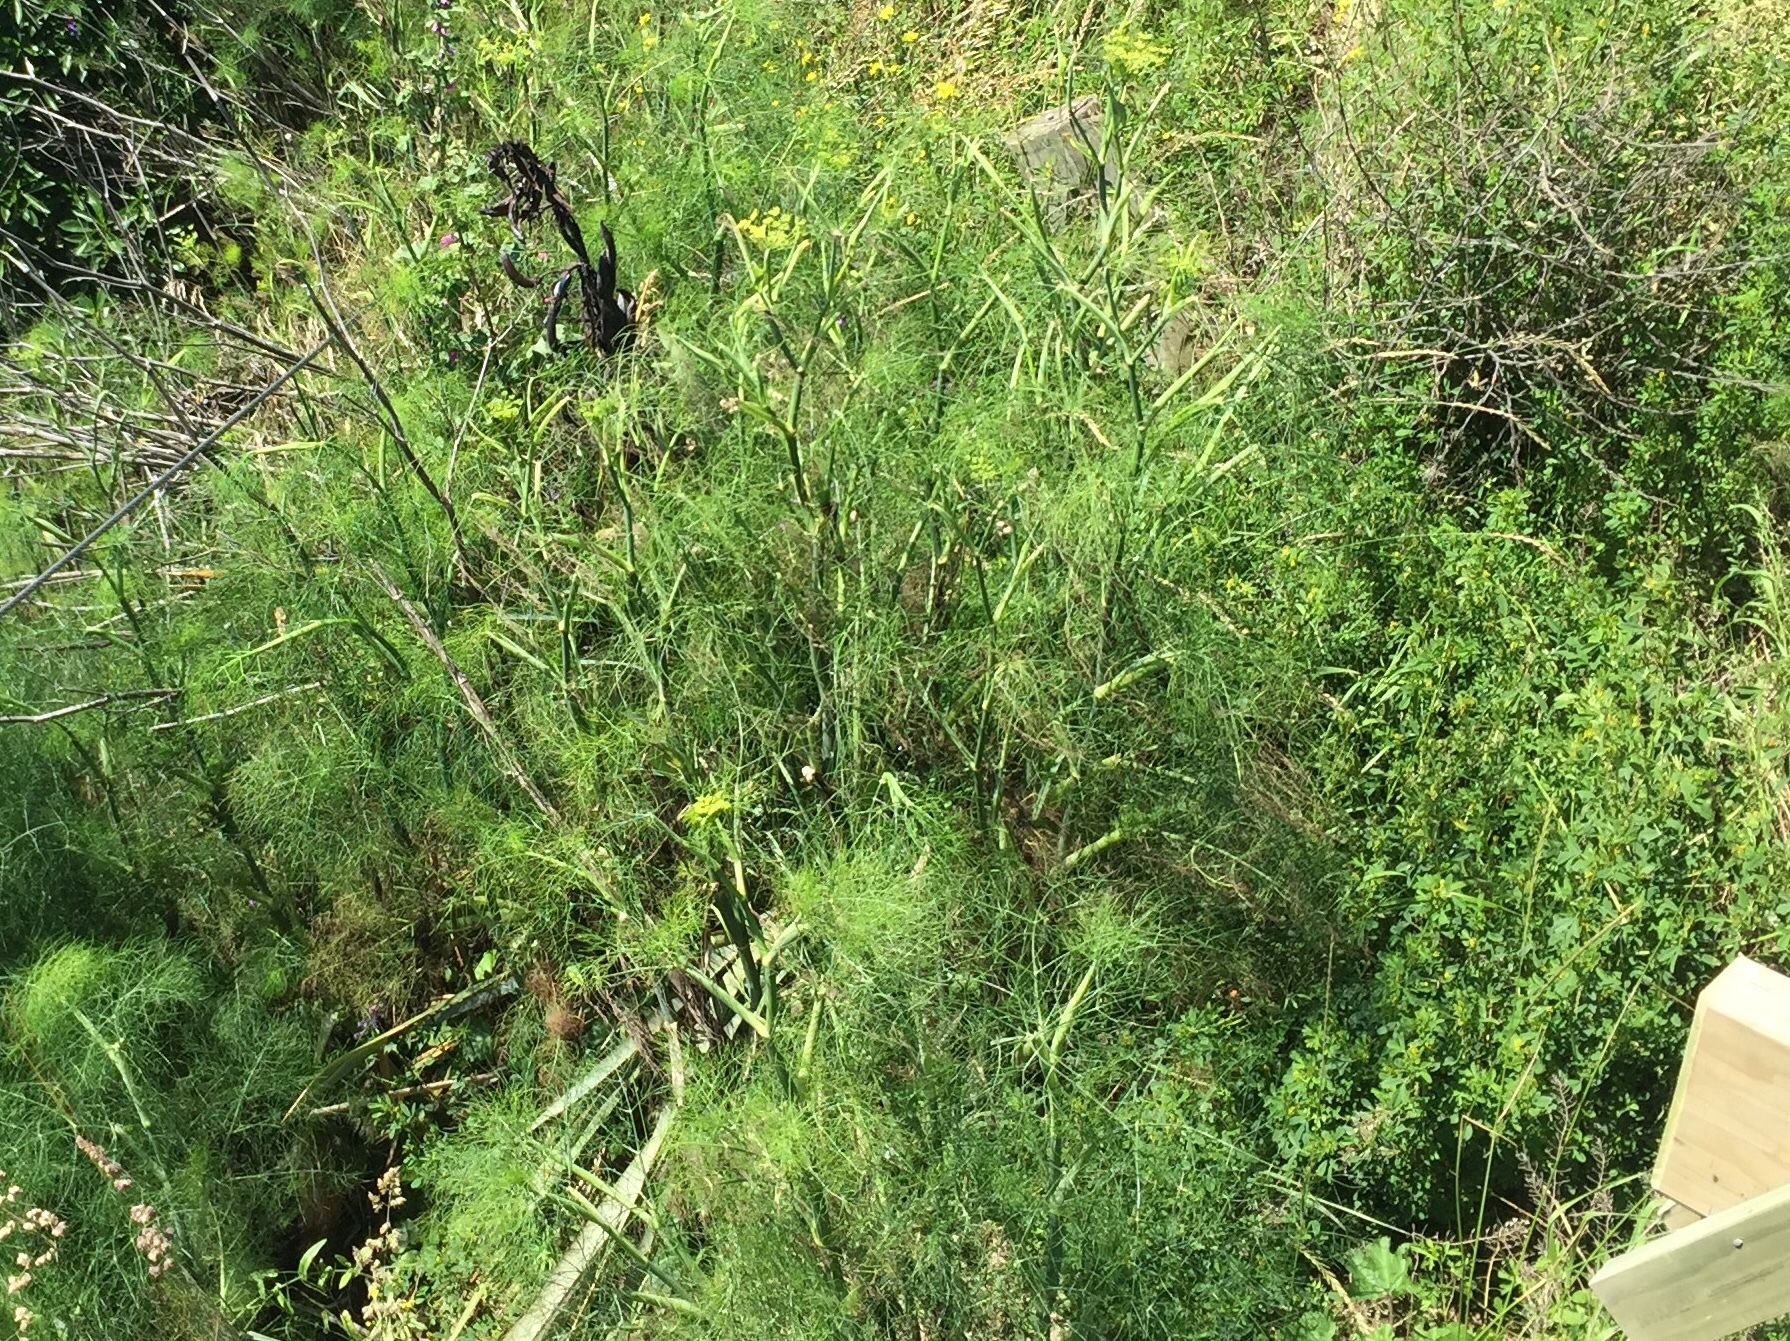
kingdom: Plantae
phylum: Tracheophyta
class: Magnoliopsida
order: Apiales
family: Apiaceae
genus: Foeniculum
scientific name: Foeniculum vulgare
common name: Fennel
